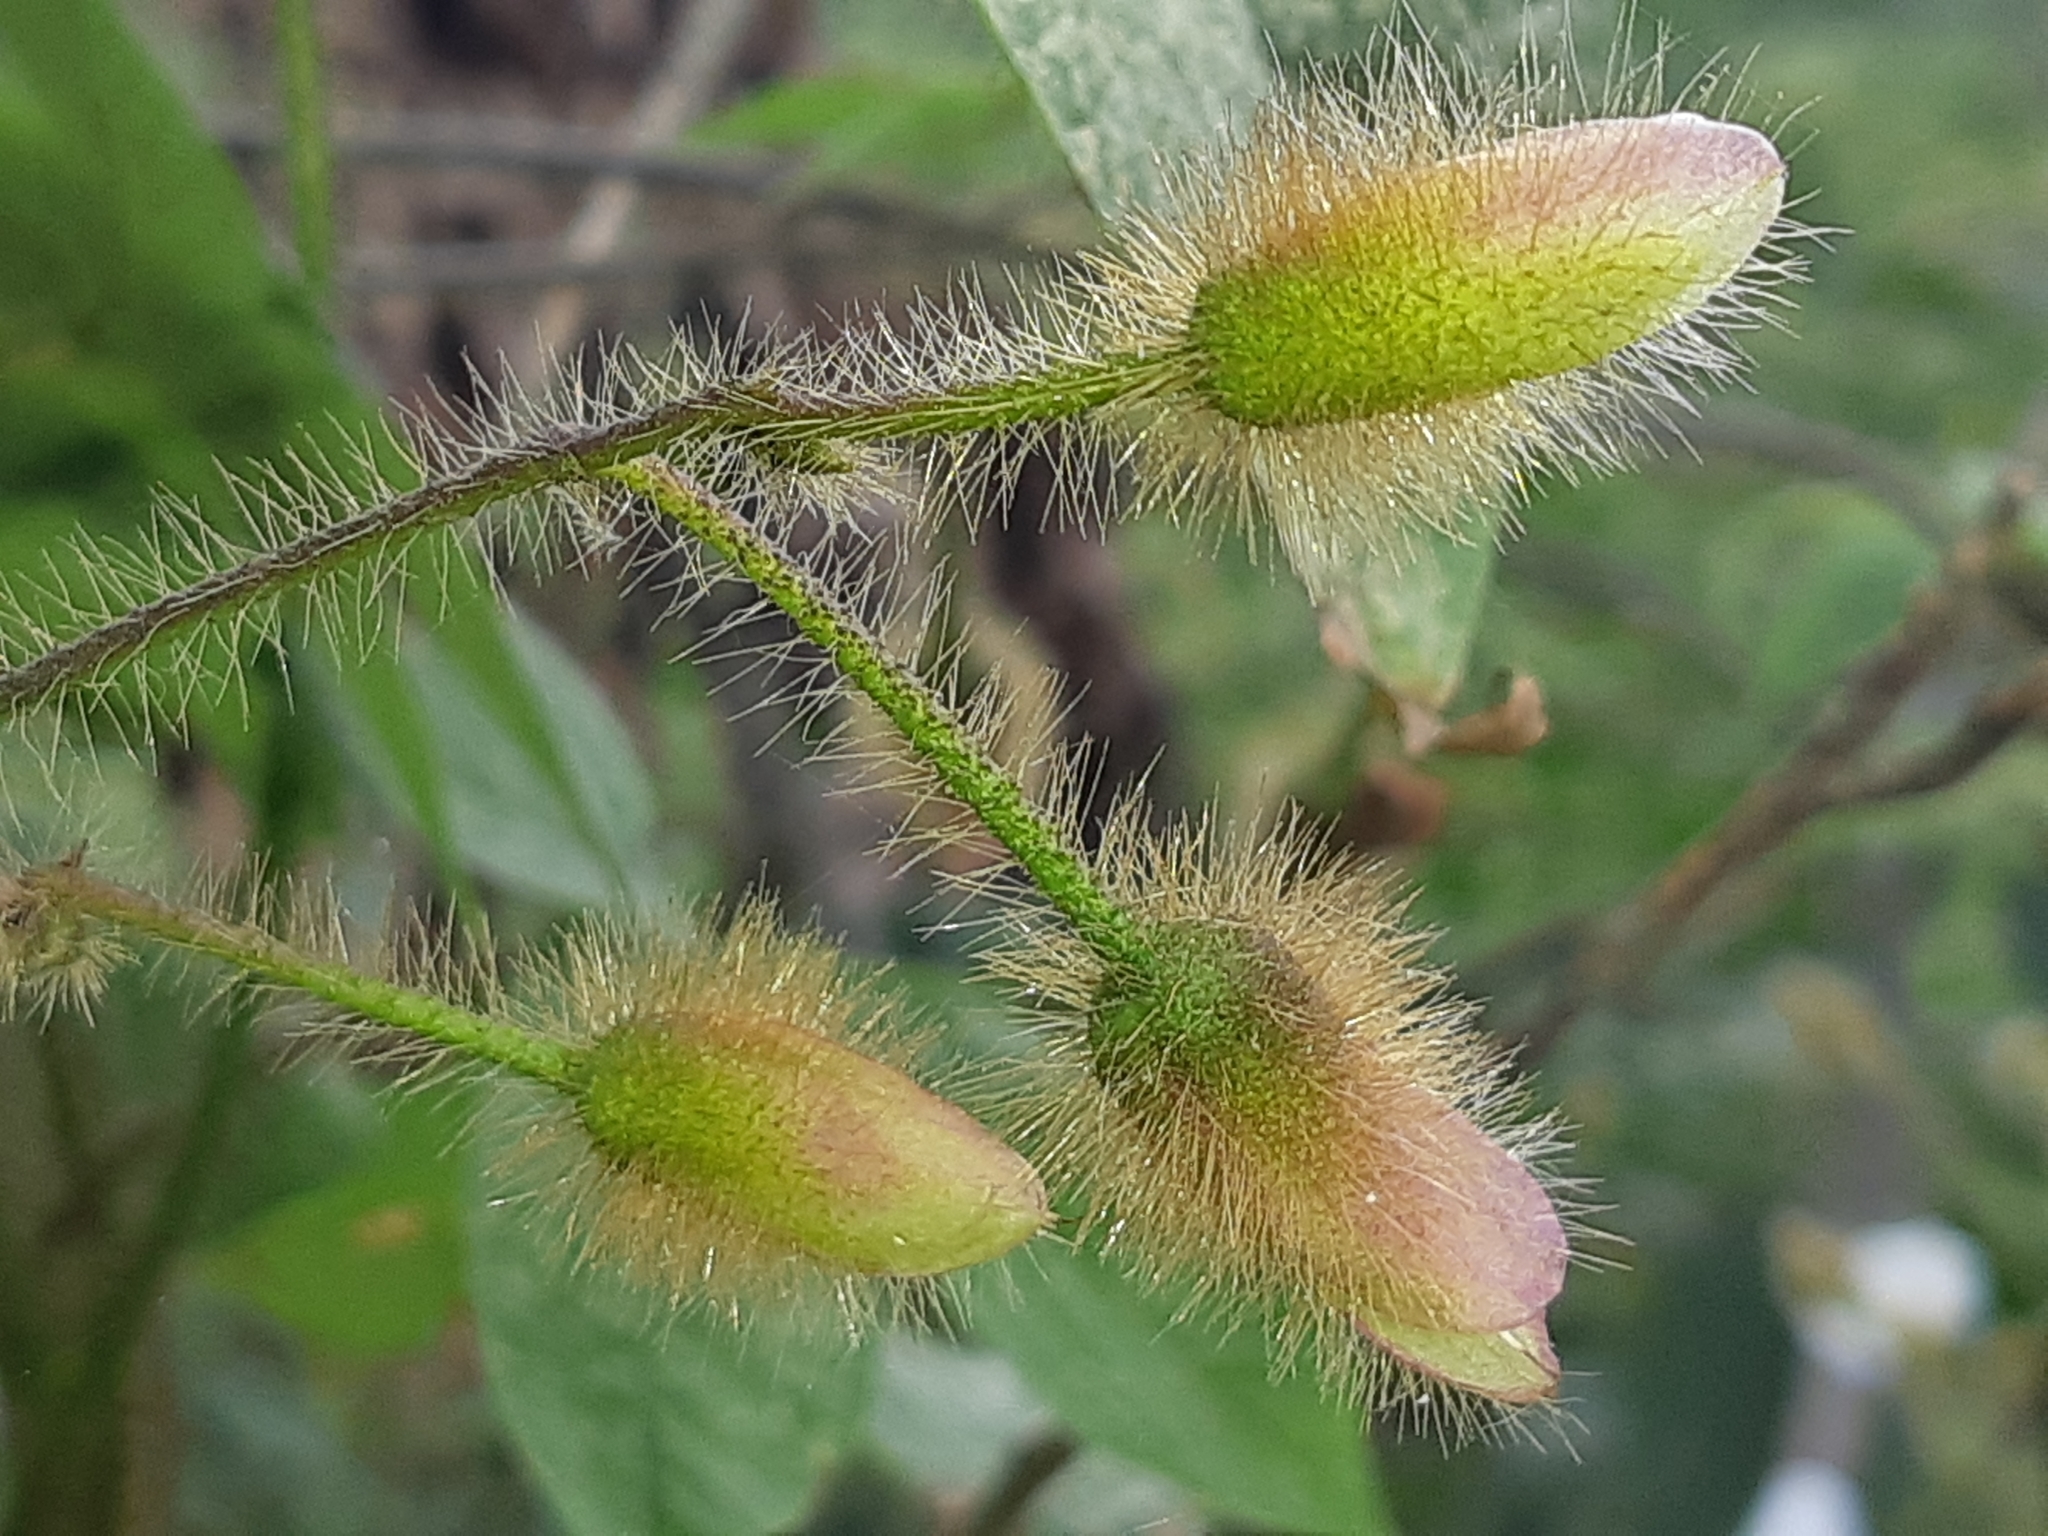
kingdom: Plantae
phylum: Tracheophyta
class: Magnoliopsida
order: Solanales
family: Convolvulaceae
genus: Distimake
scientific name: Distimake aegyptius
